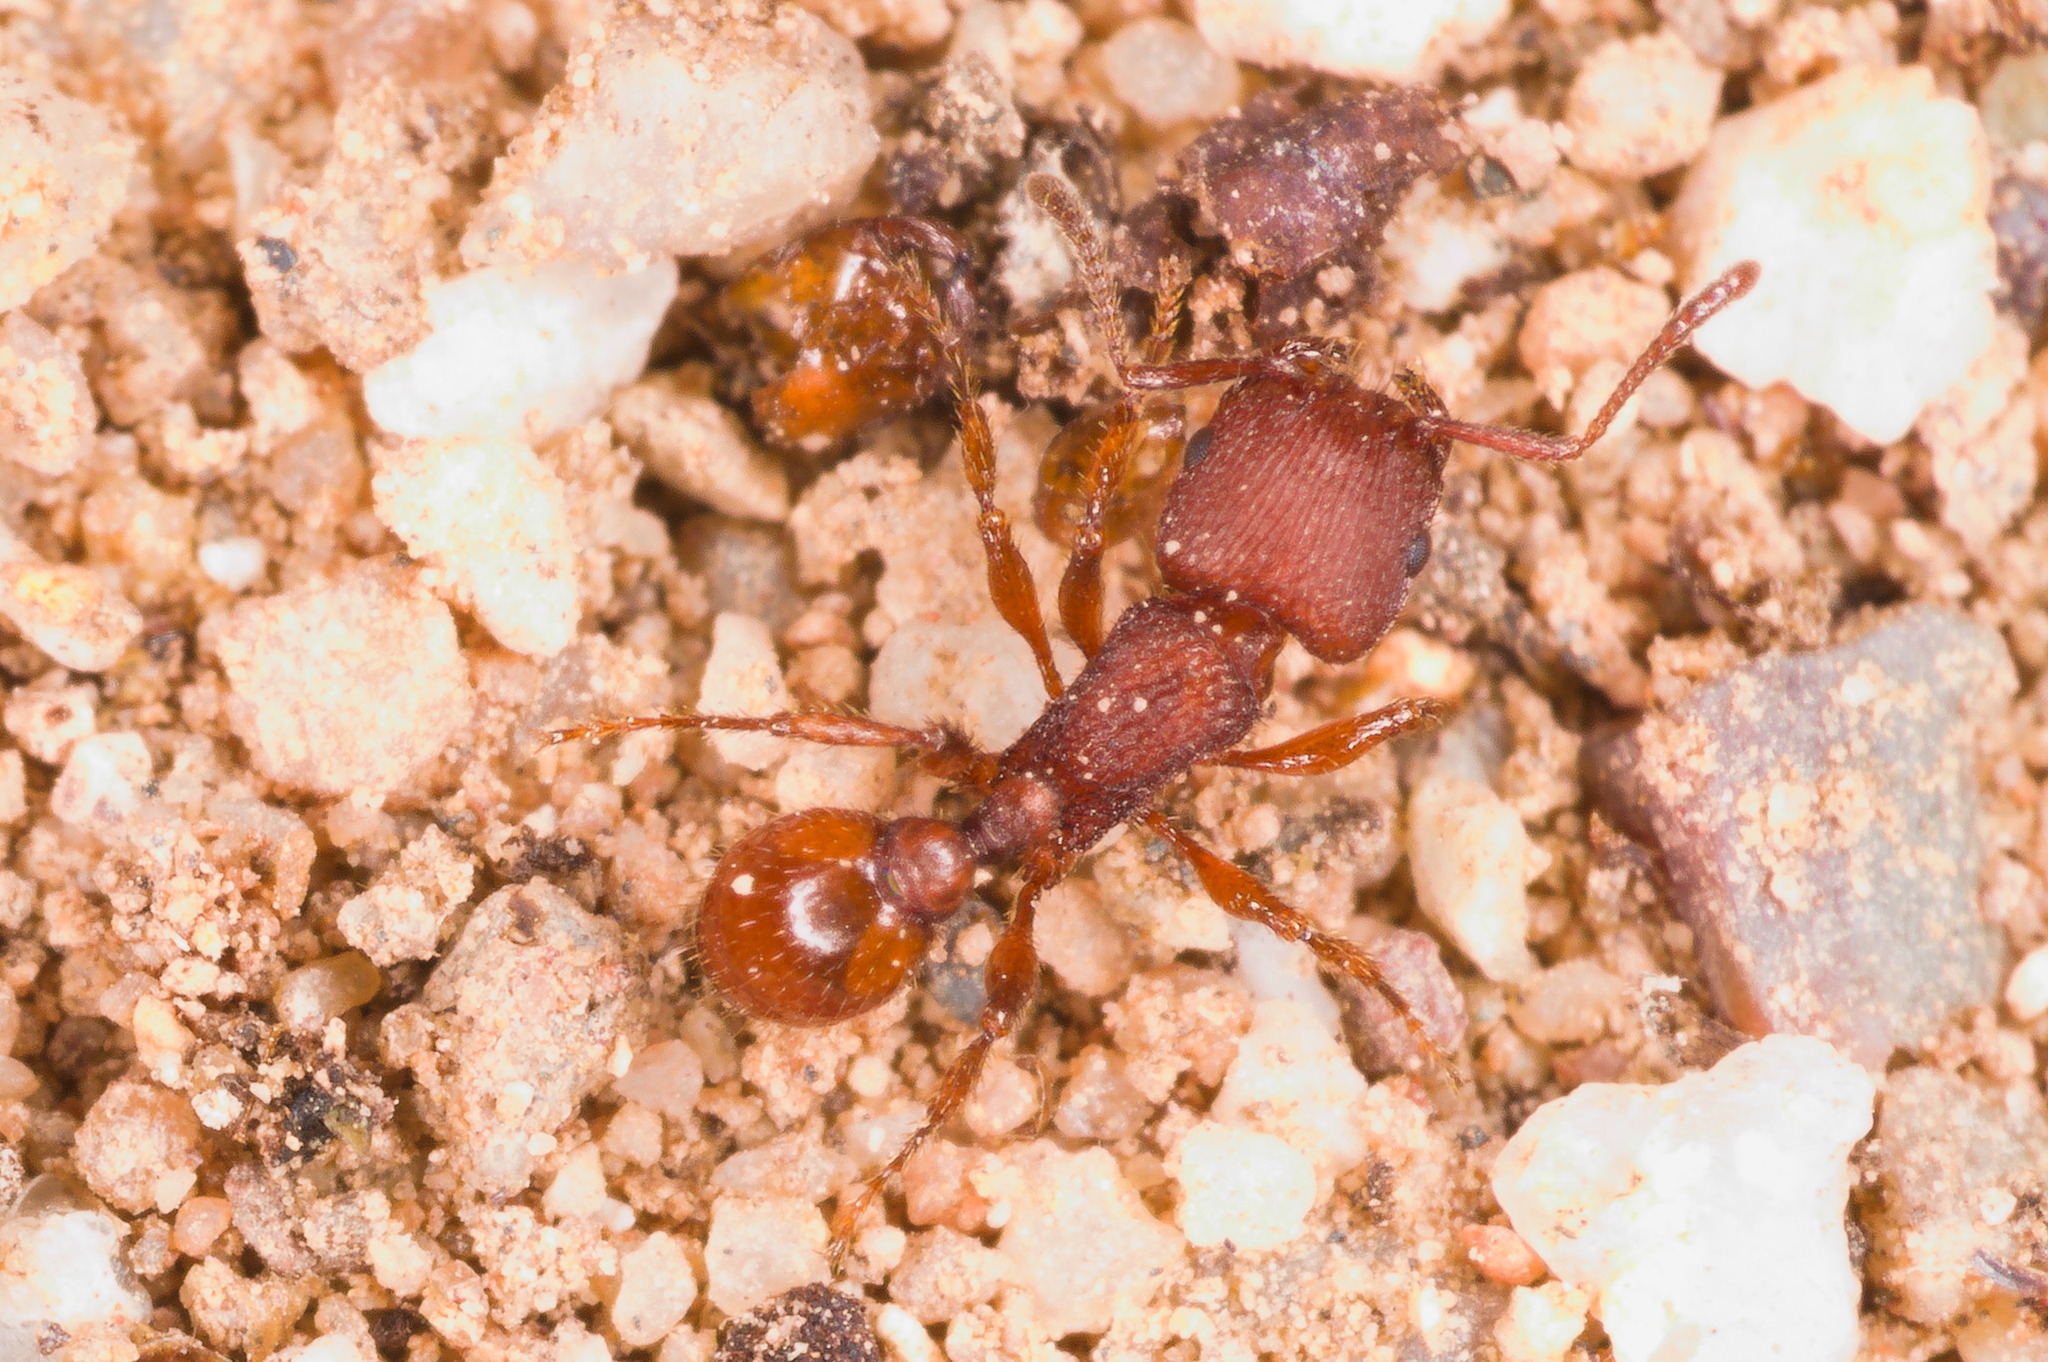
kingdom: Animalia
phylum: Arthropoda
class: Insecta
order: Hymenoptera
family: Formicidae
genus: Pogonomyrmex
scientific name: Pogonomyrmex pima
